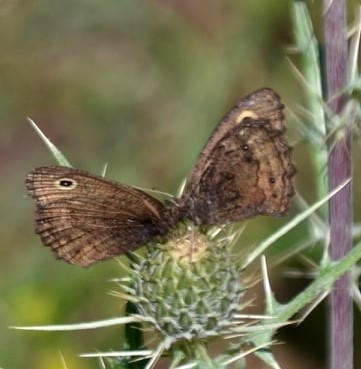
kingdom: Animalia
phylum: Arthropoda
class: Insecta
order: Lepidoptera
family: Nymphalidae
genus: Cercyonis
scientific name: Cercyonis oetus
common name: Small wood-nymph
